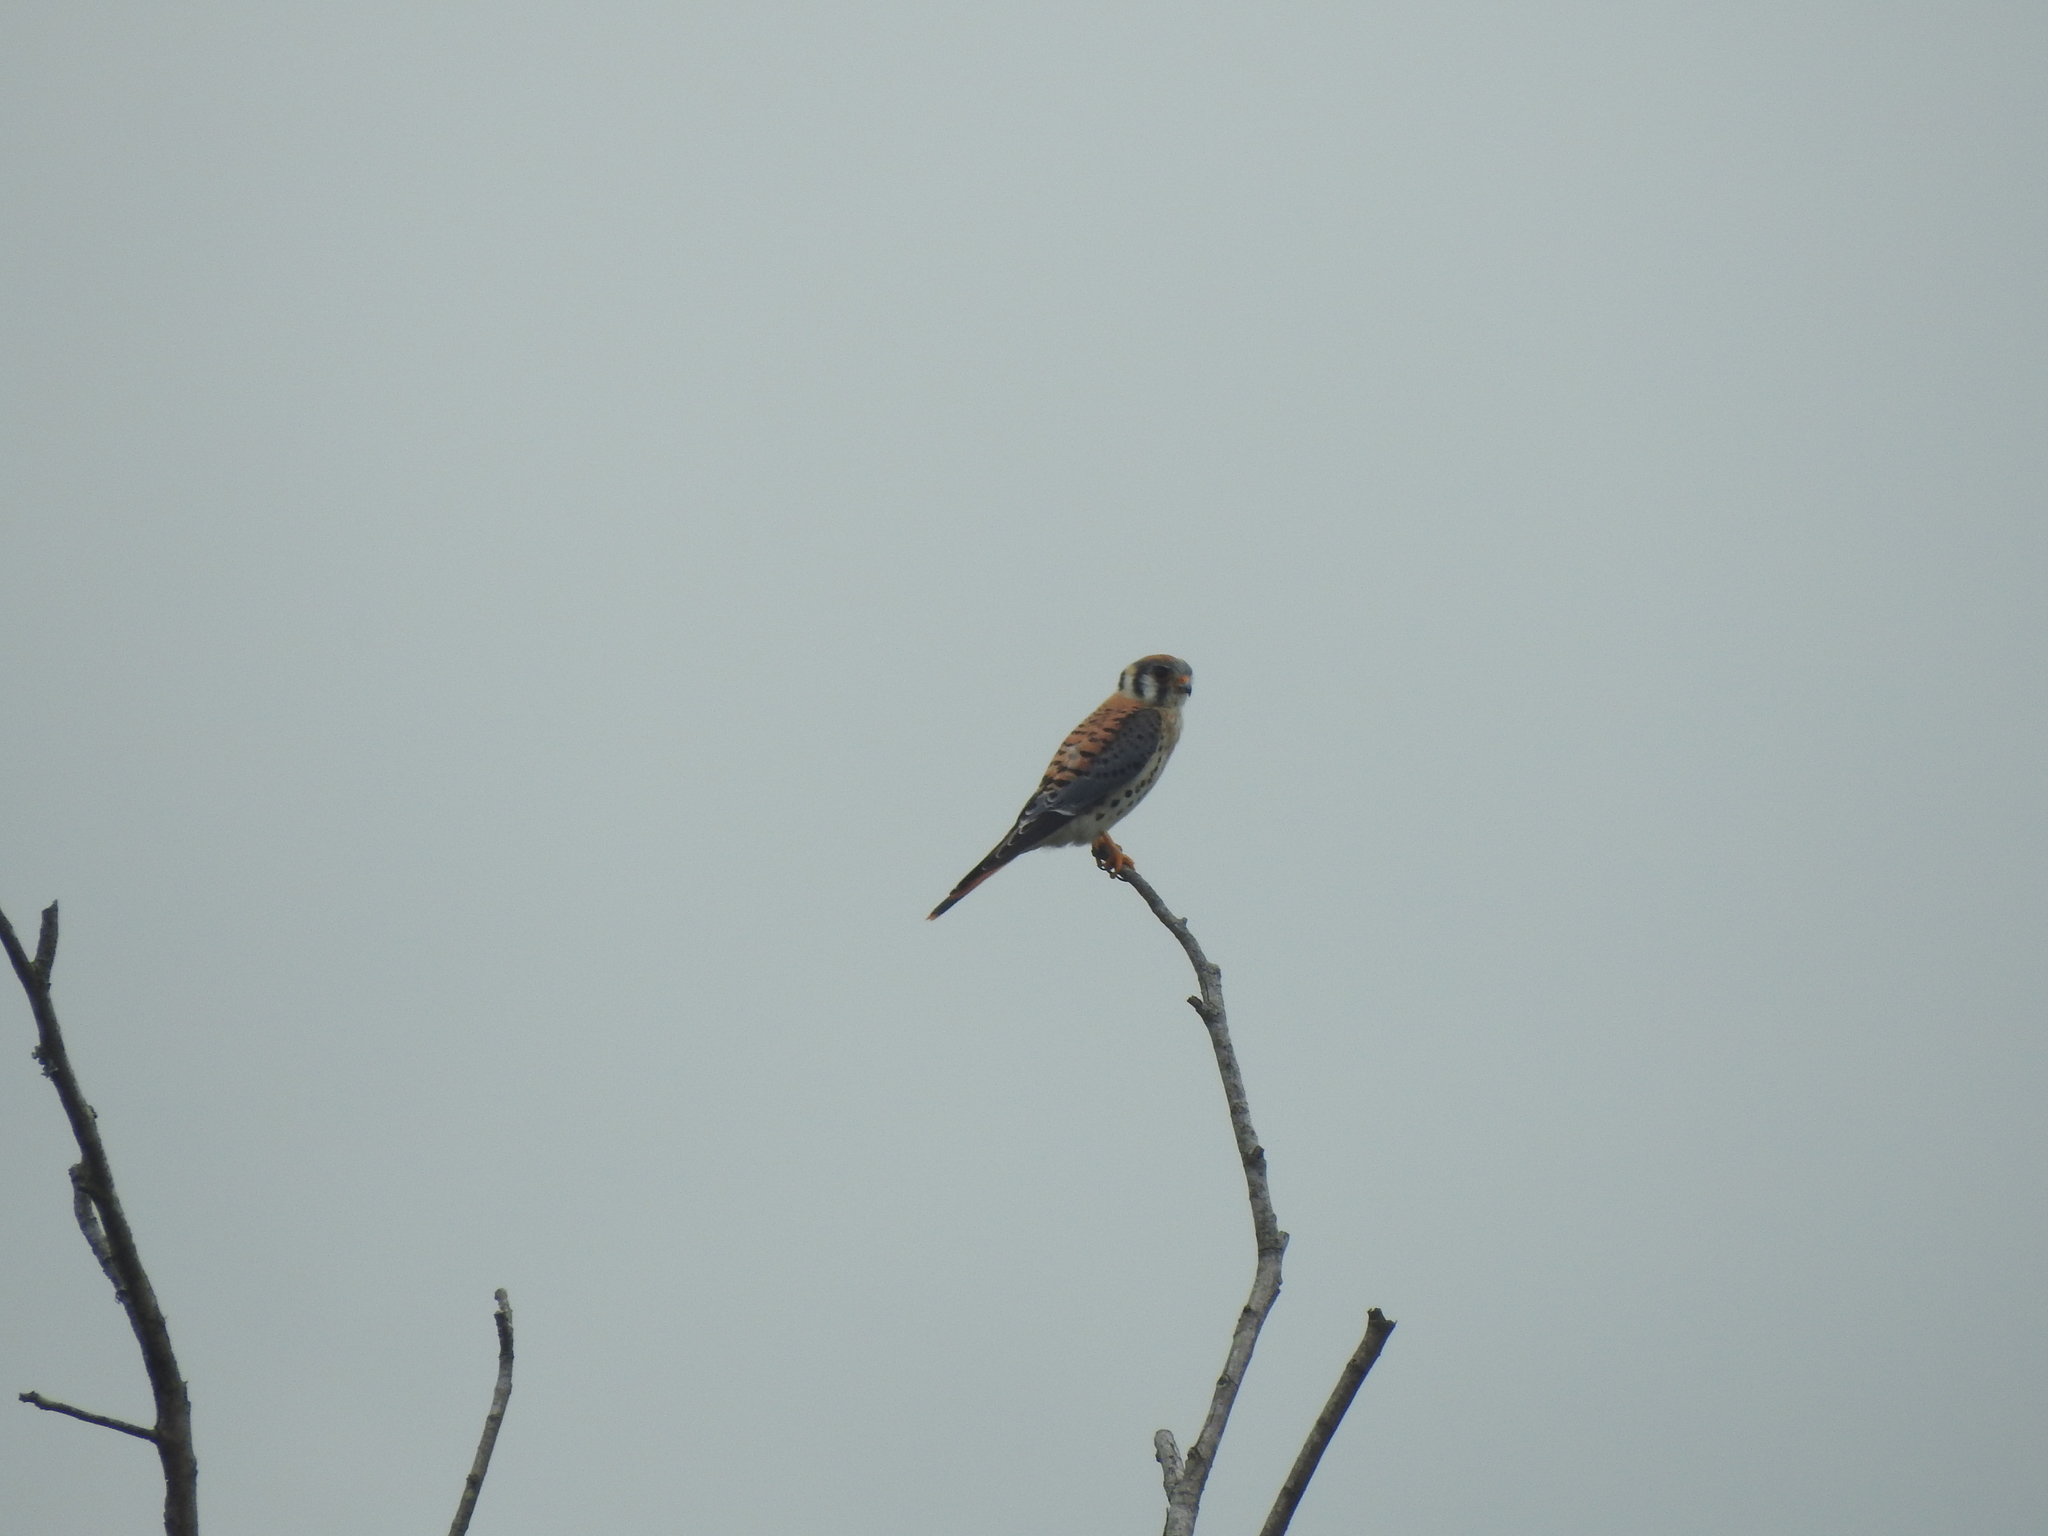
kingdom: Animalia
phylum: Chordata
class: Aves
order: Falconiformes
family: Falconidae
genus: Falco
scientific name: Falco sparverius
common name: American kestrel
